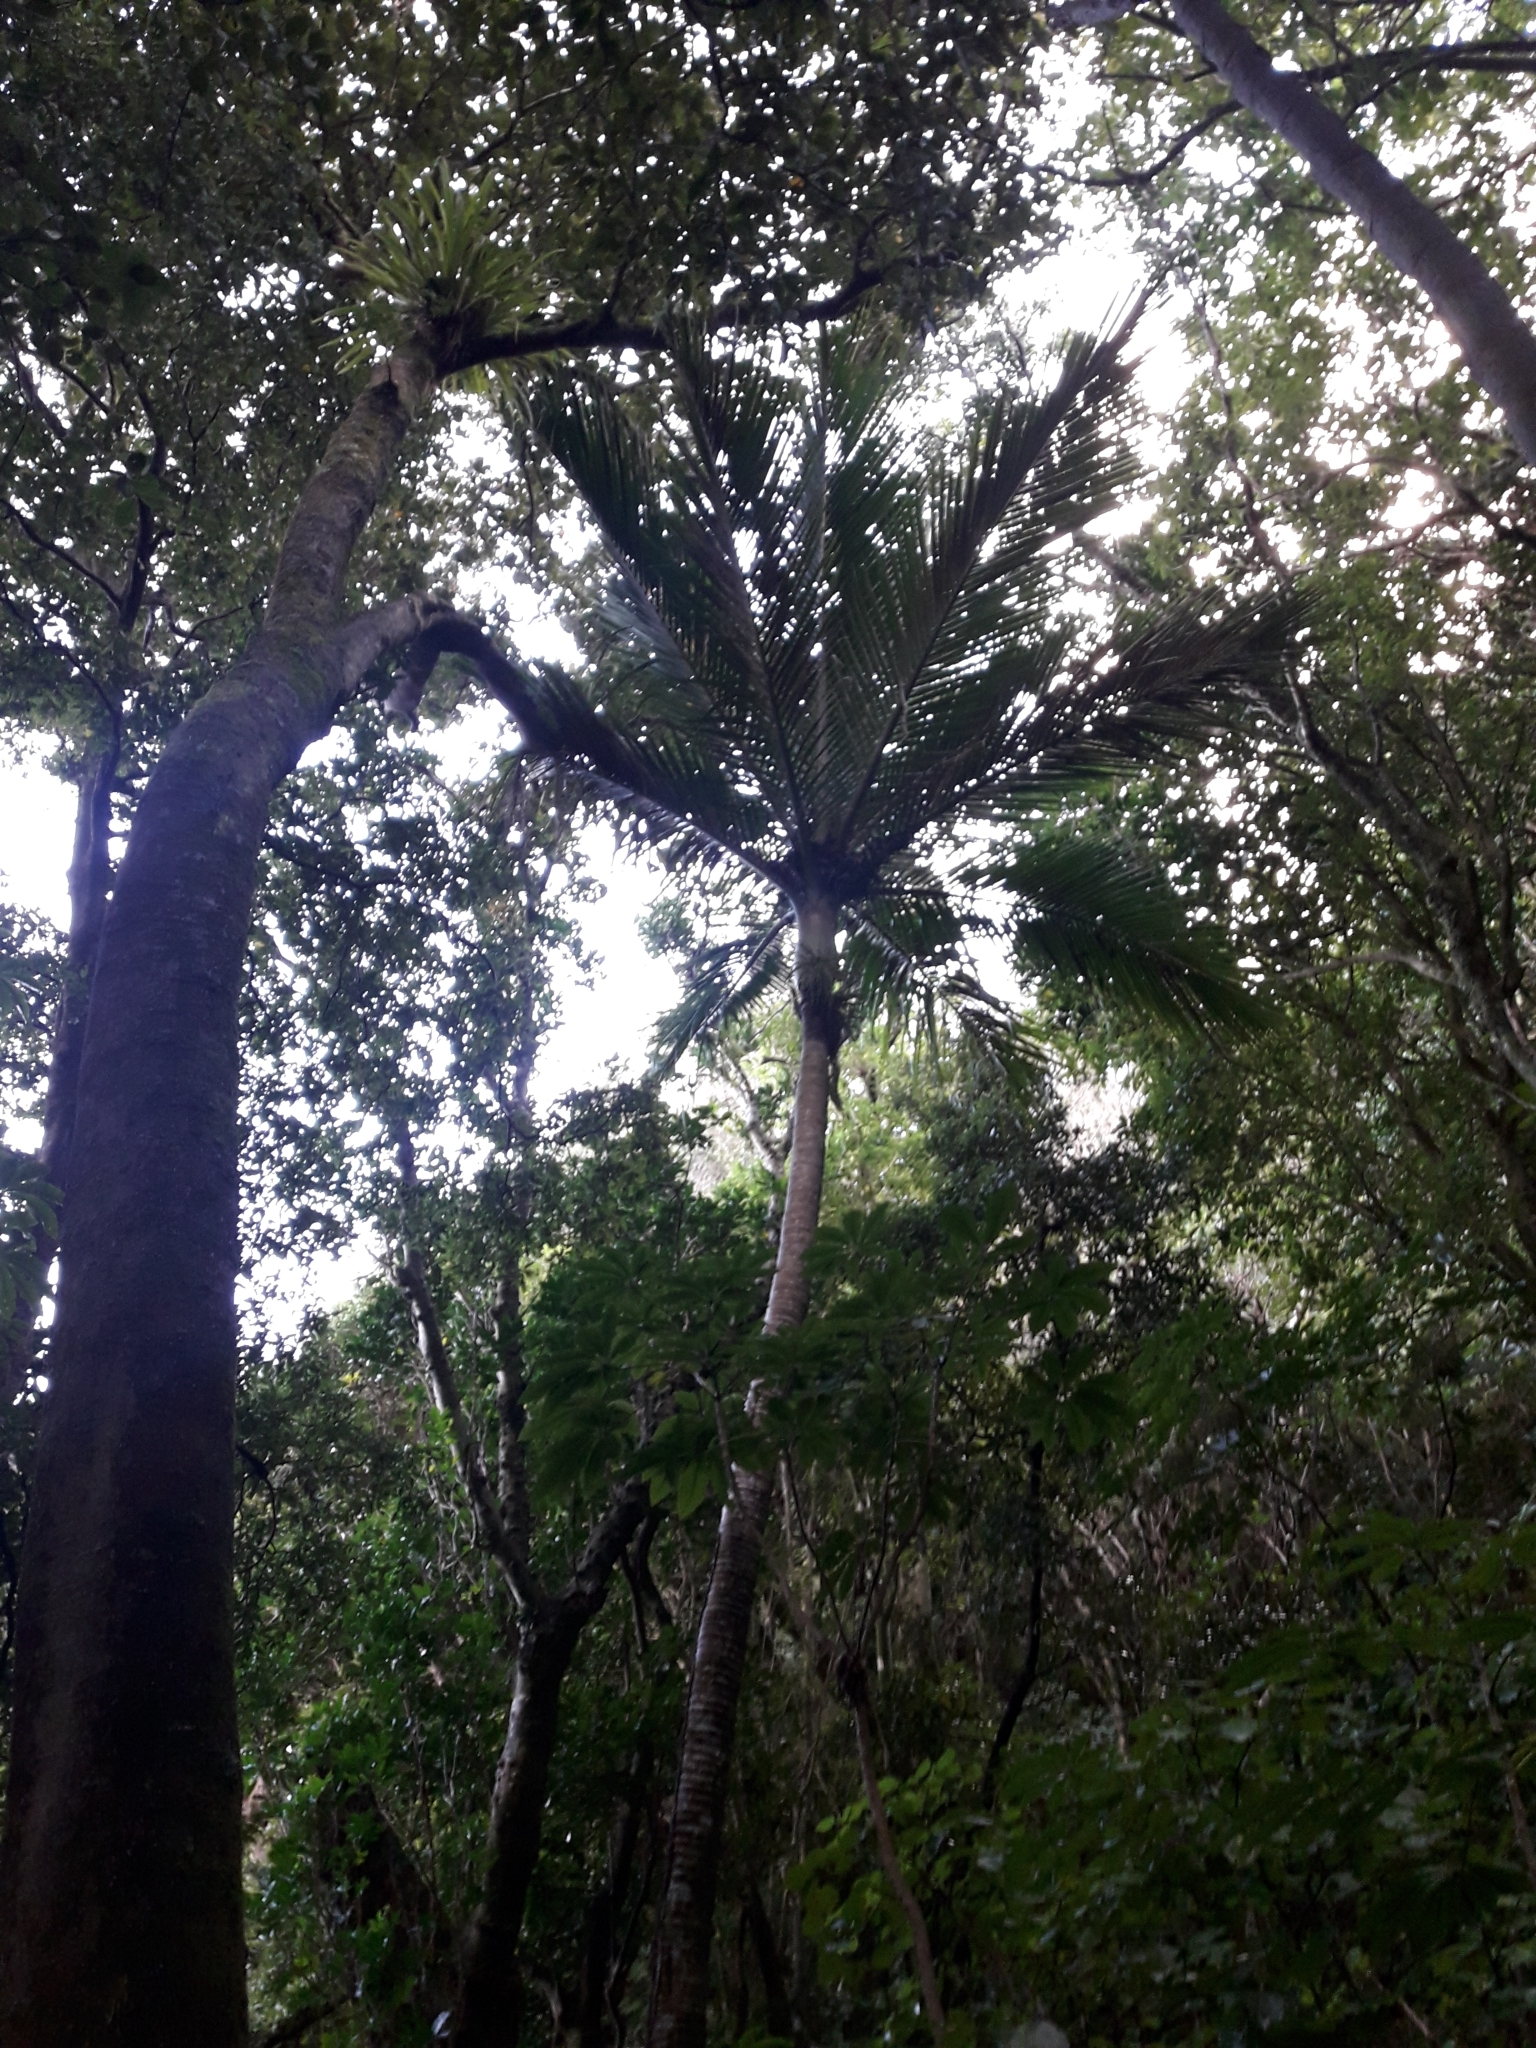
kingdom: Plantae
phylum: Tracheophyta
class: Liliopsida
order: Arecales
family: Arecaceae
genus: Rhopalostylis
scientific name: Rhopalostylis sapida
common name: Feather-duster palm
